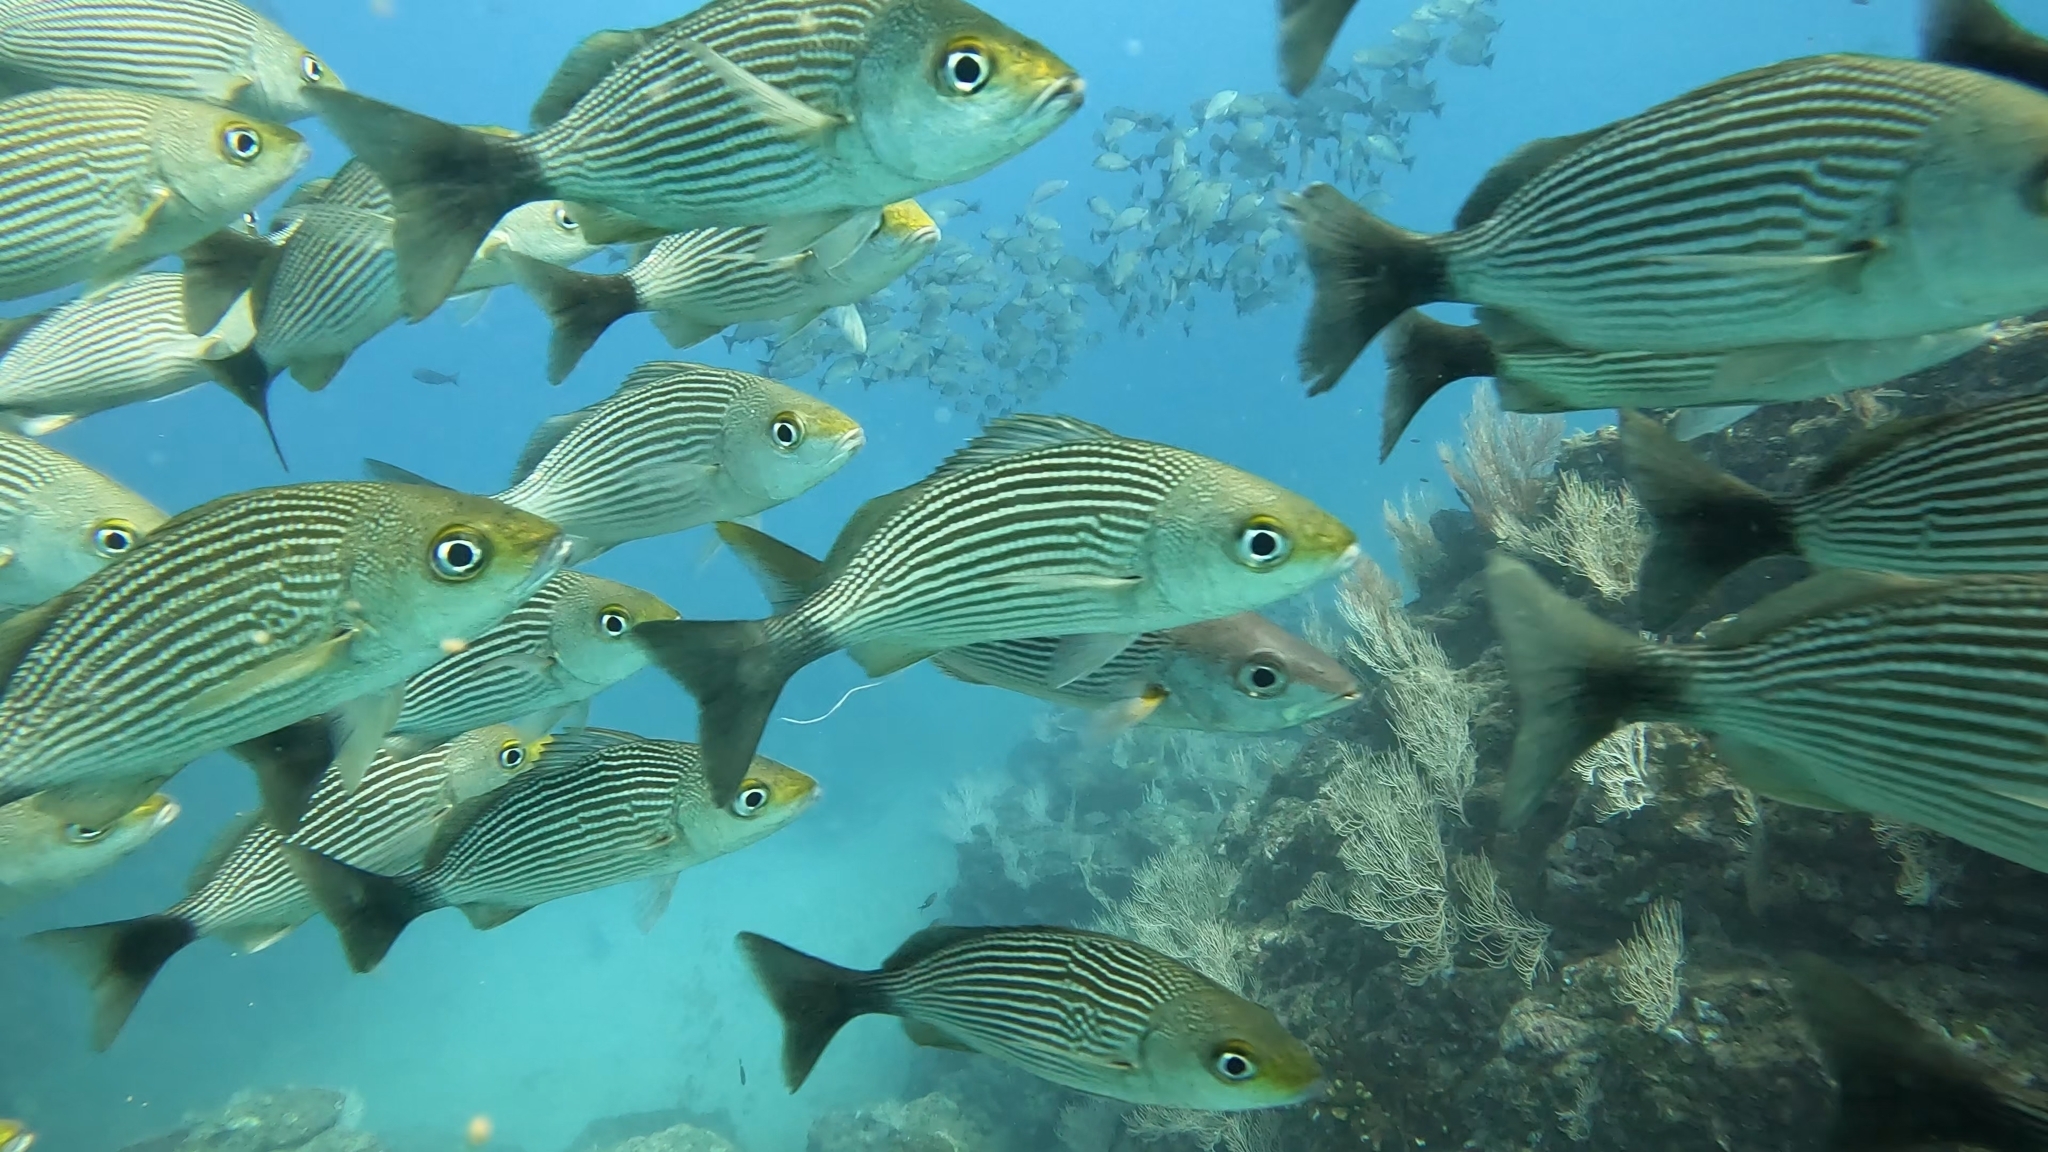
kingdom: Animalia
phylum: Chordata
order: Perciformes
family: Haemulidae
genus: Haemulon
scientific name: Haemulon maculicauda
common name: Spottail grunt
